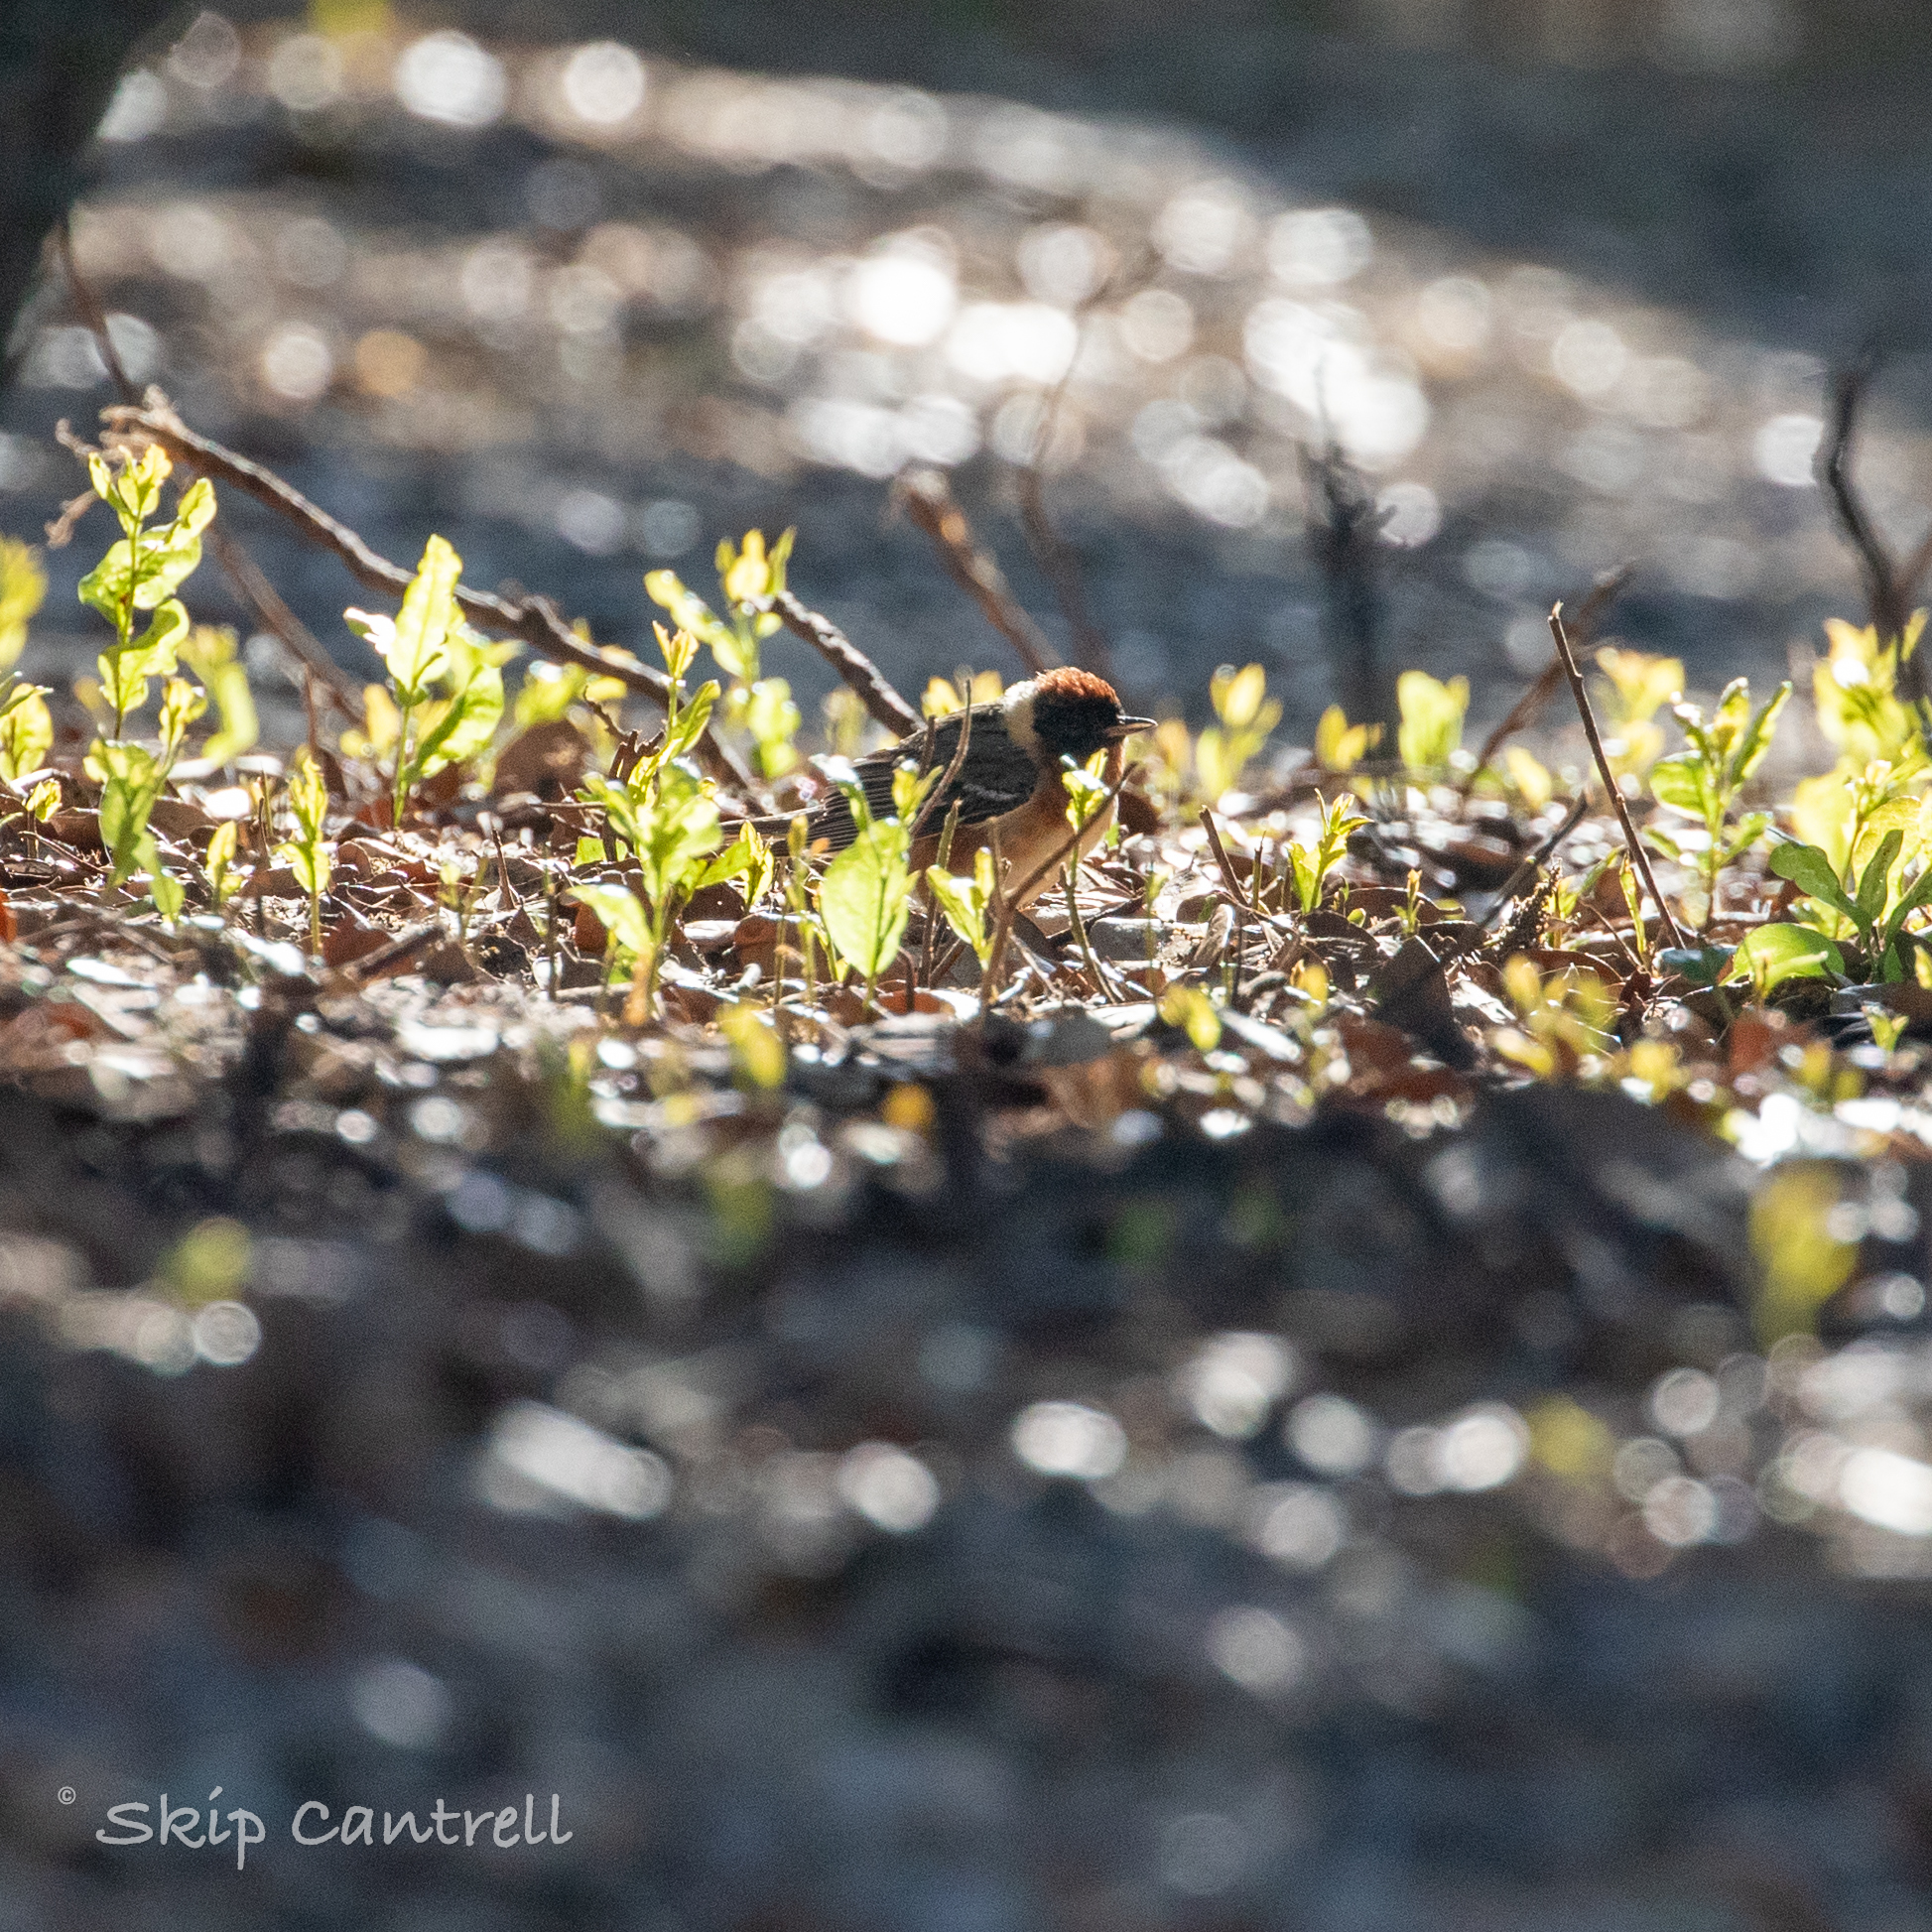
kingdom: Animalia
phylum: Chordata
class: Aves
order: Passeriformes
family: Parulidae
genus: Setophaga
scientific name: Setophaga castanea
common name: Bay-breasted warbler
